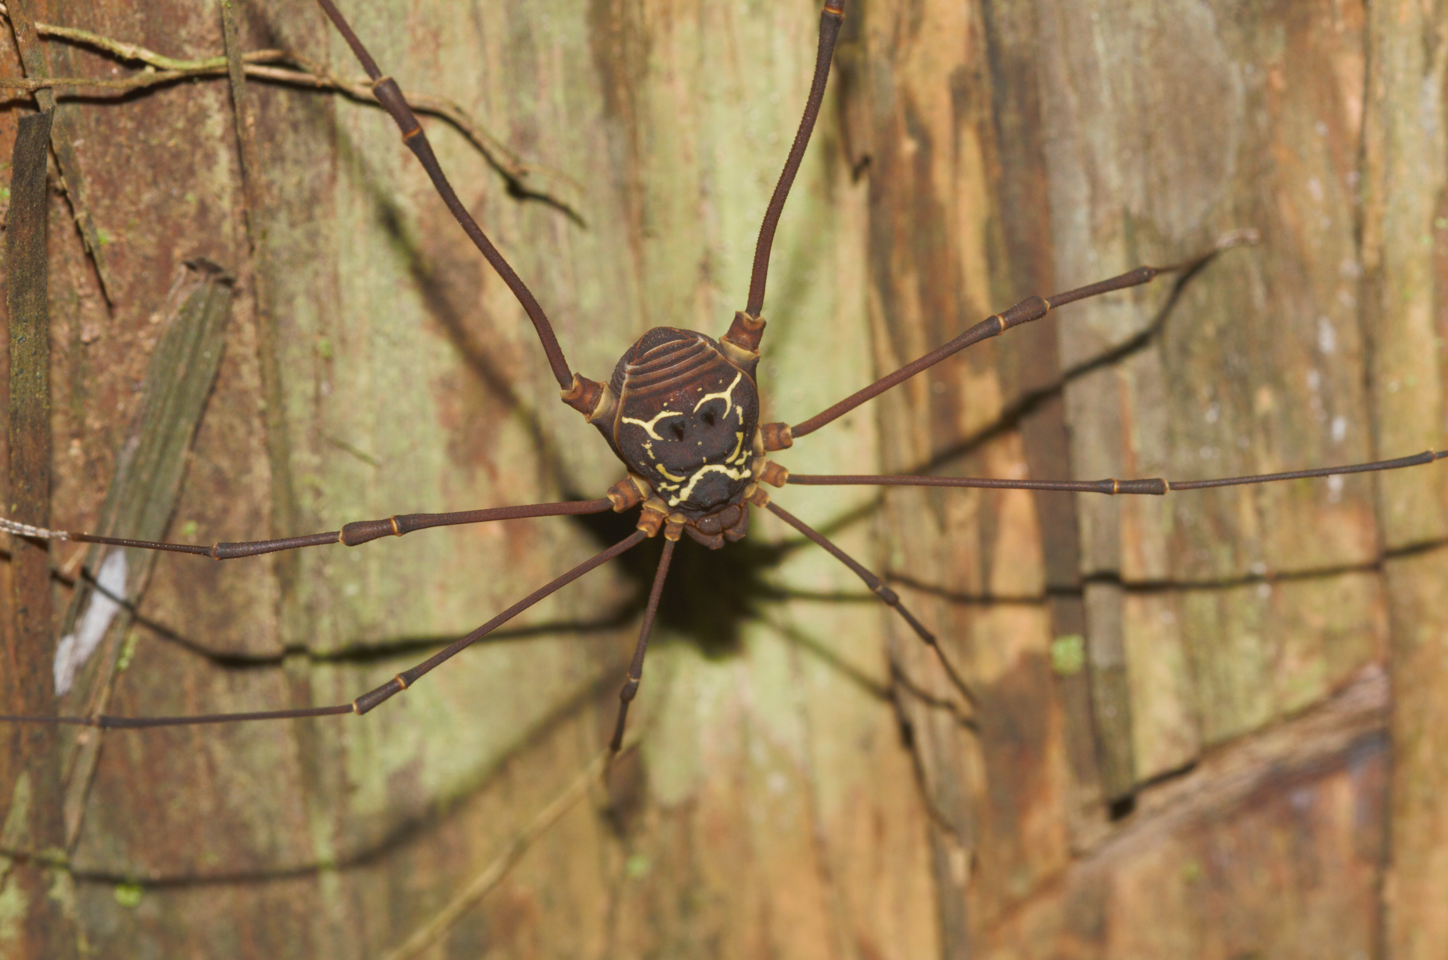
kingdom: Animalia
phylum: Arthropoda
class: Arachnida
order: Opiliones
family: Cosmetidae
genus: Paecilaema
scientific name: Paecilaema curvipes
